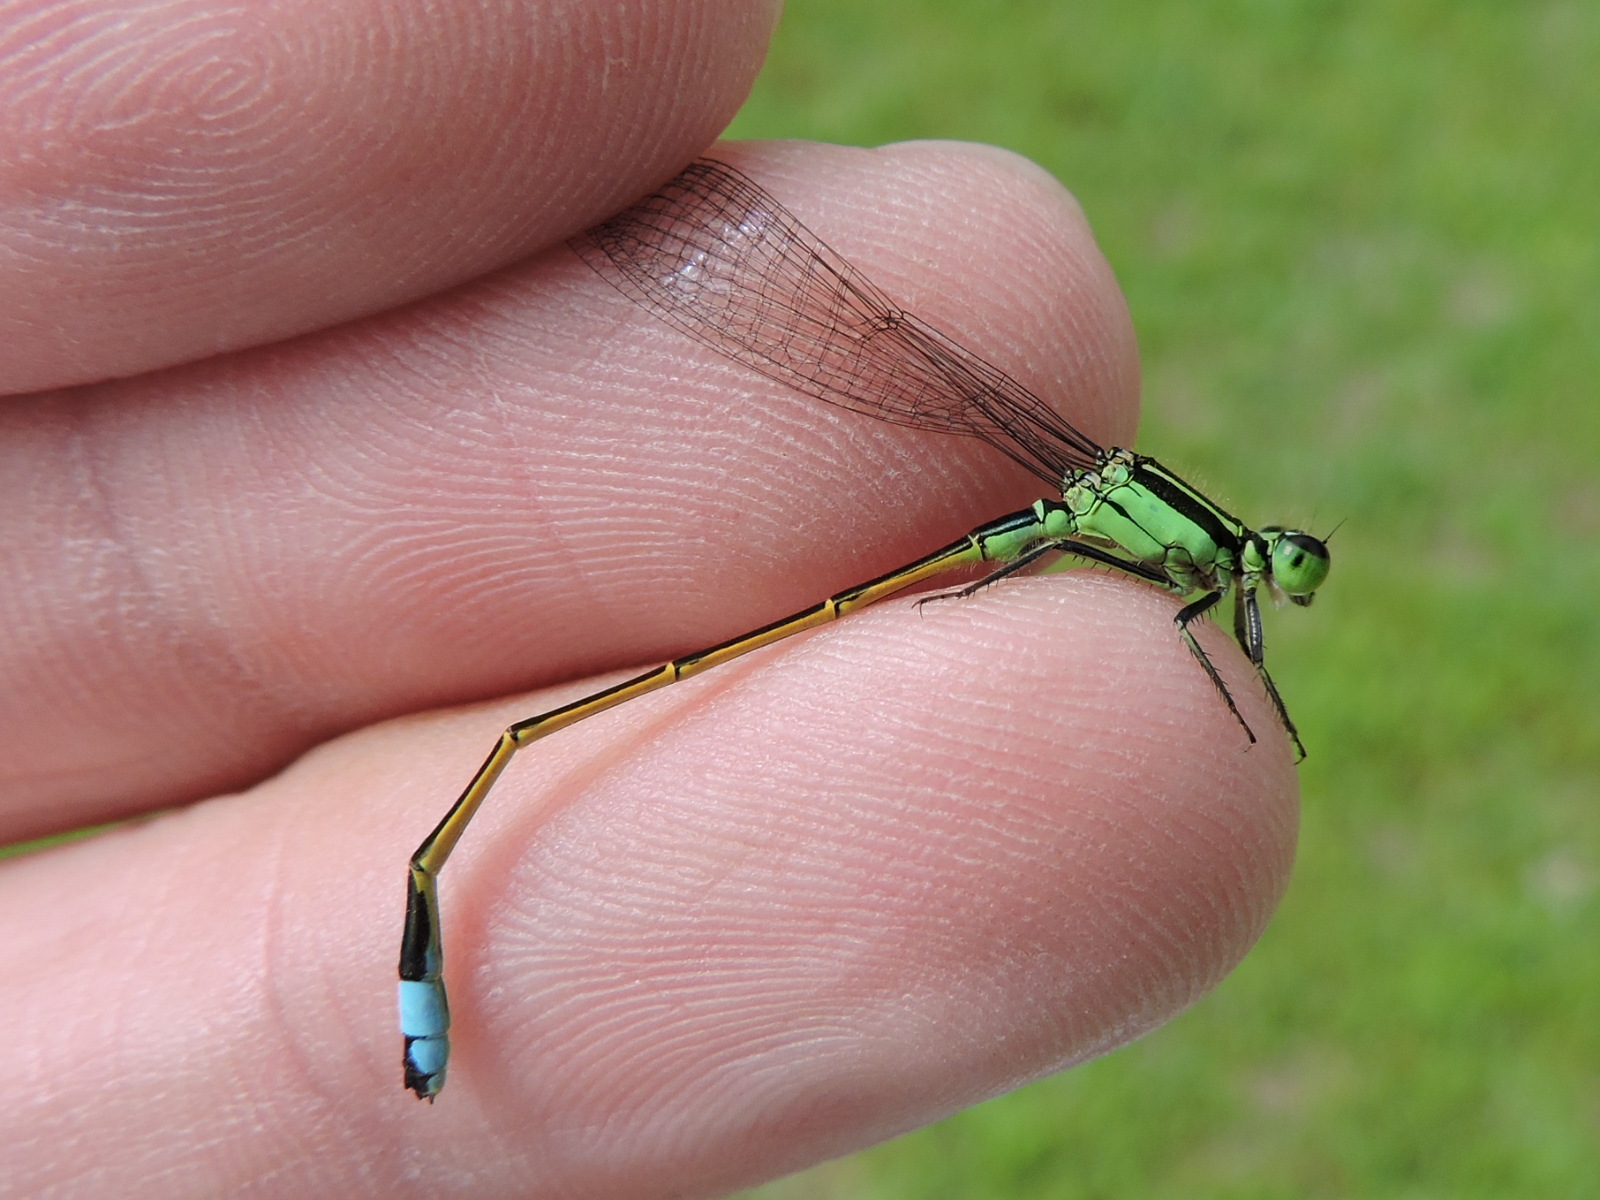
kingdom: Animalia
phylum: Arthropoda
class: Insecta
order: Odonata
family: Coenagrionidae
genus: Ischnura
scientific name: Ischnura ramburii
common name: Rambur's forktail
